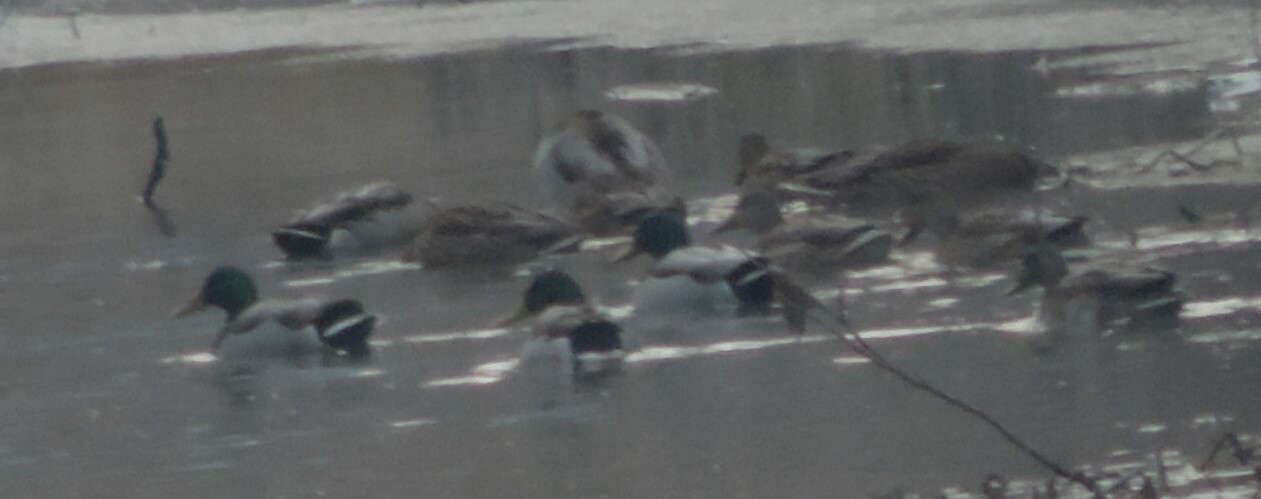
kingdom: Animalia
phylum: Chordata
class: Aves
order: Anseriformes
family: Anatidae
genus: Anas
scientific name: Anas platyrhynchos
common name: Mallard
